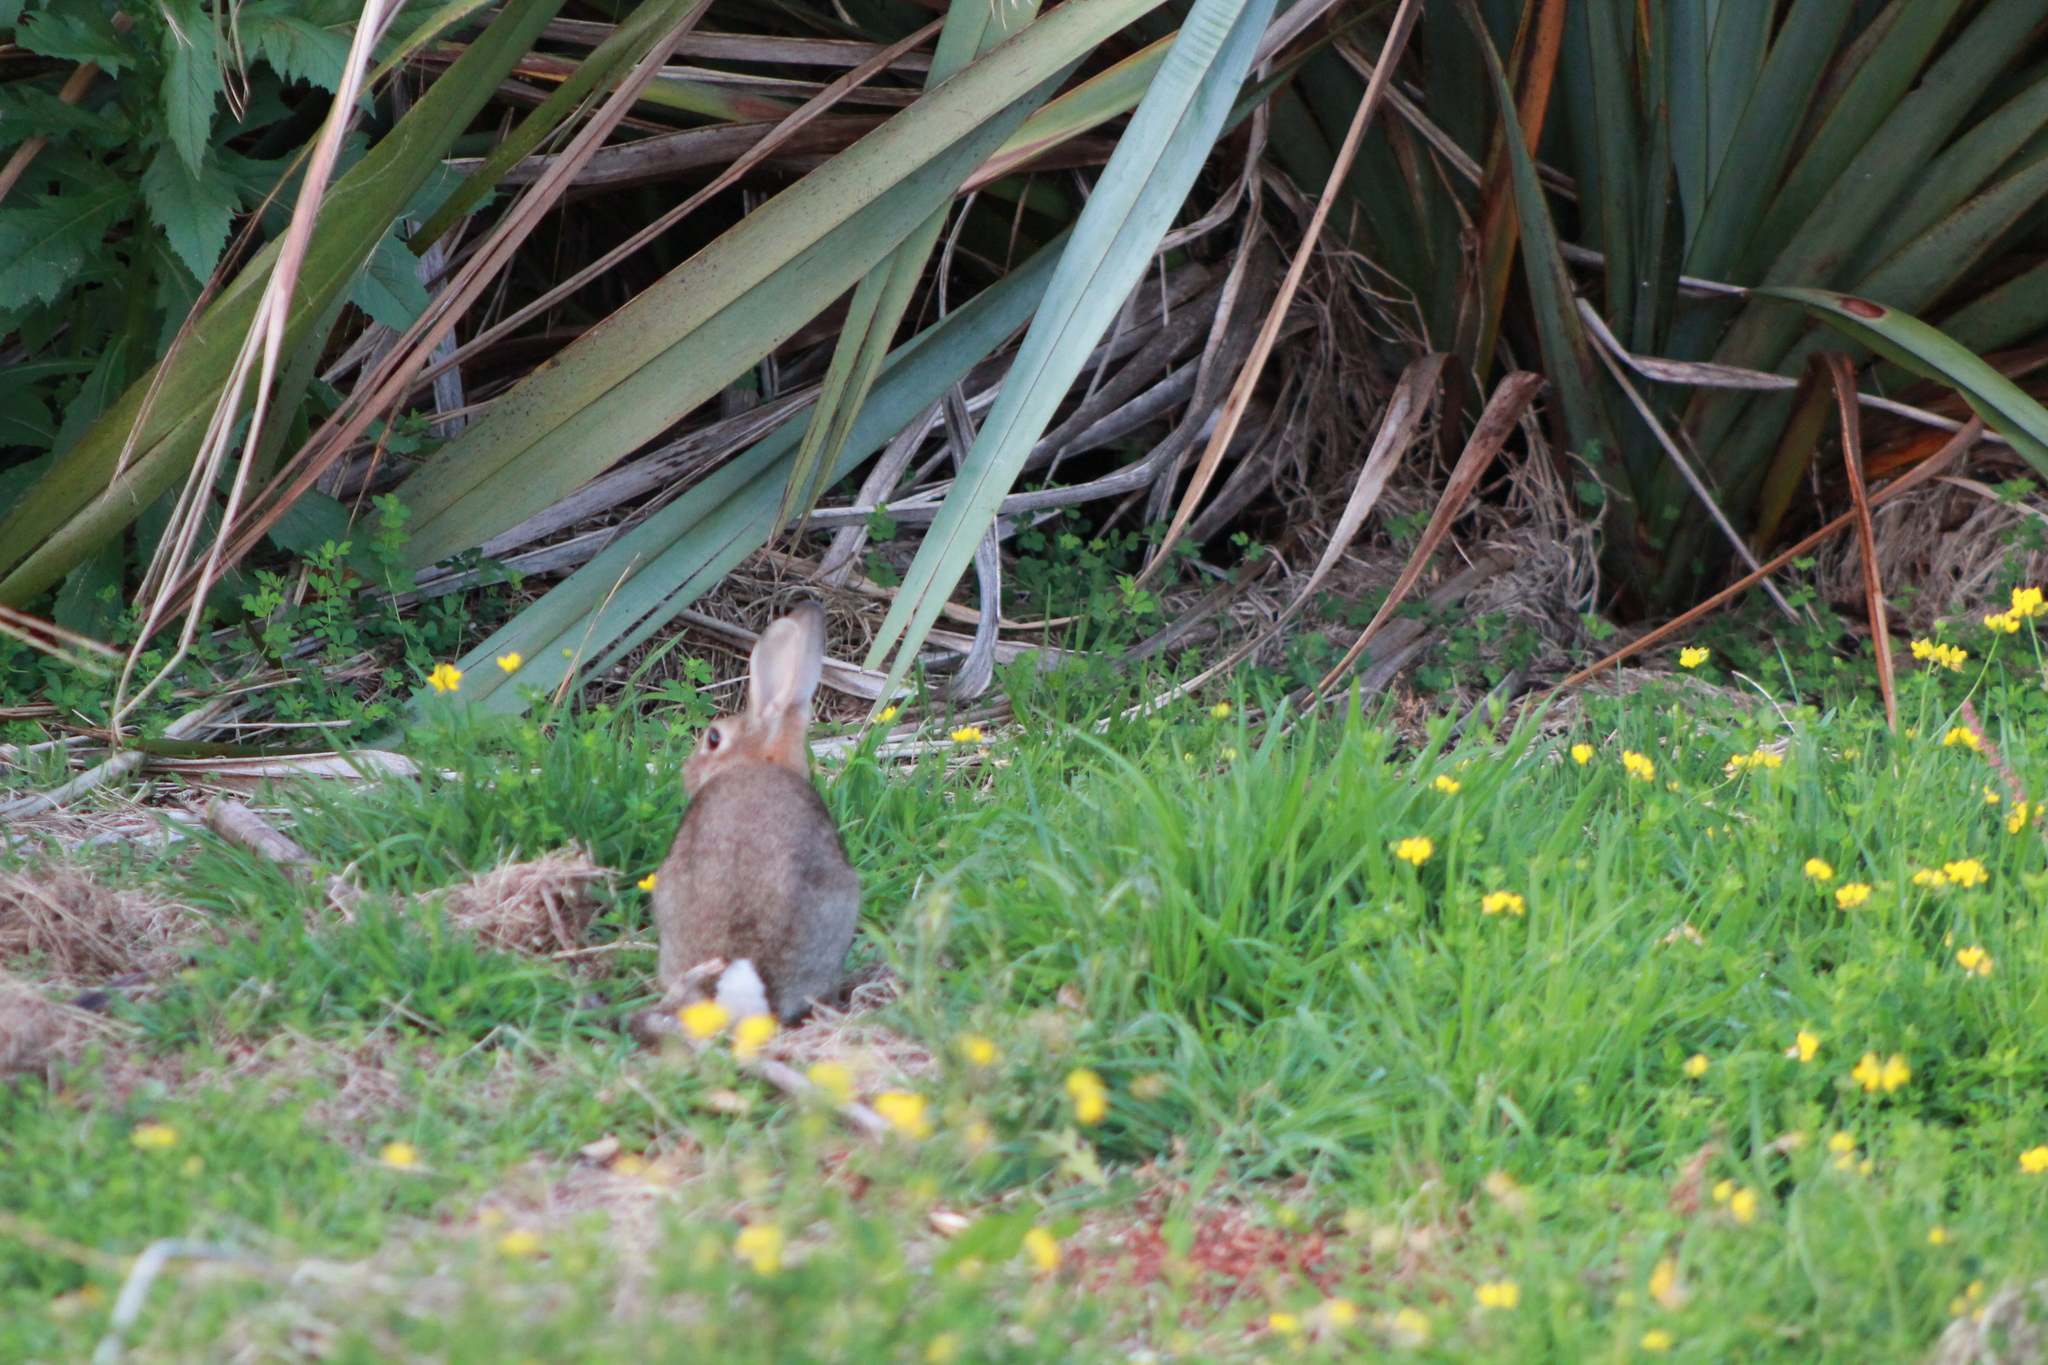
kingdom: Animalia
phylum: Chordata
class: Mammalia
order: Lagomorpha
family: Leporidae
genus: Oryctolagus
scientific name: Oryctolagus cuniculus
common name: European rabbit
